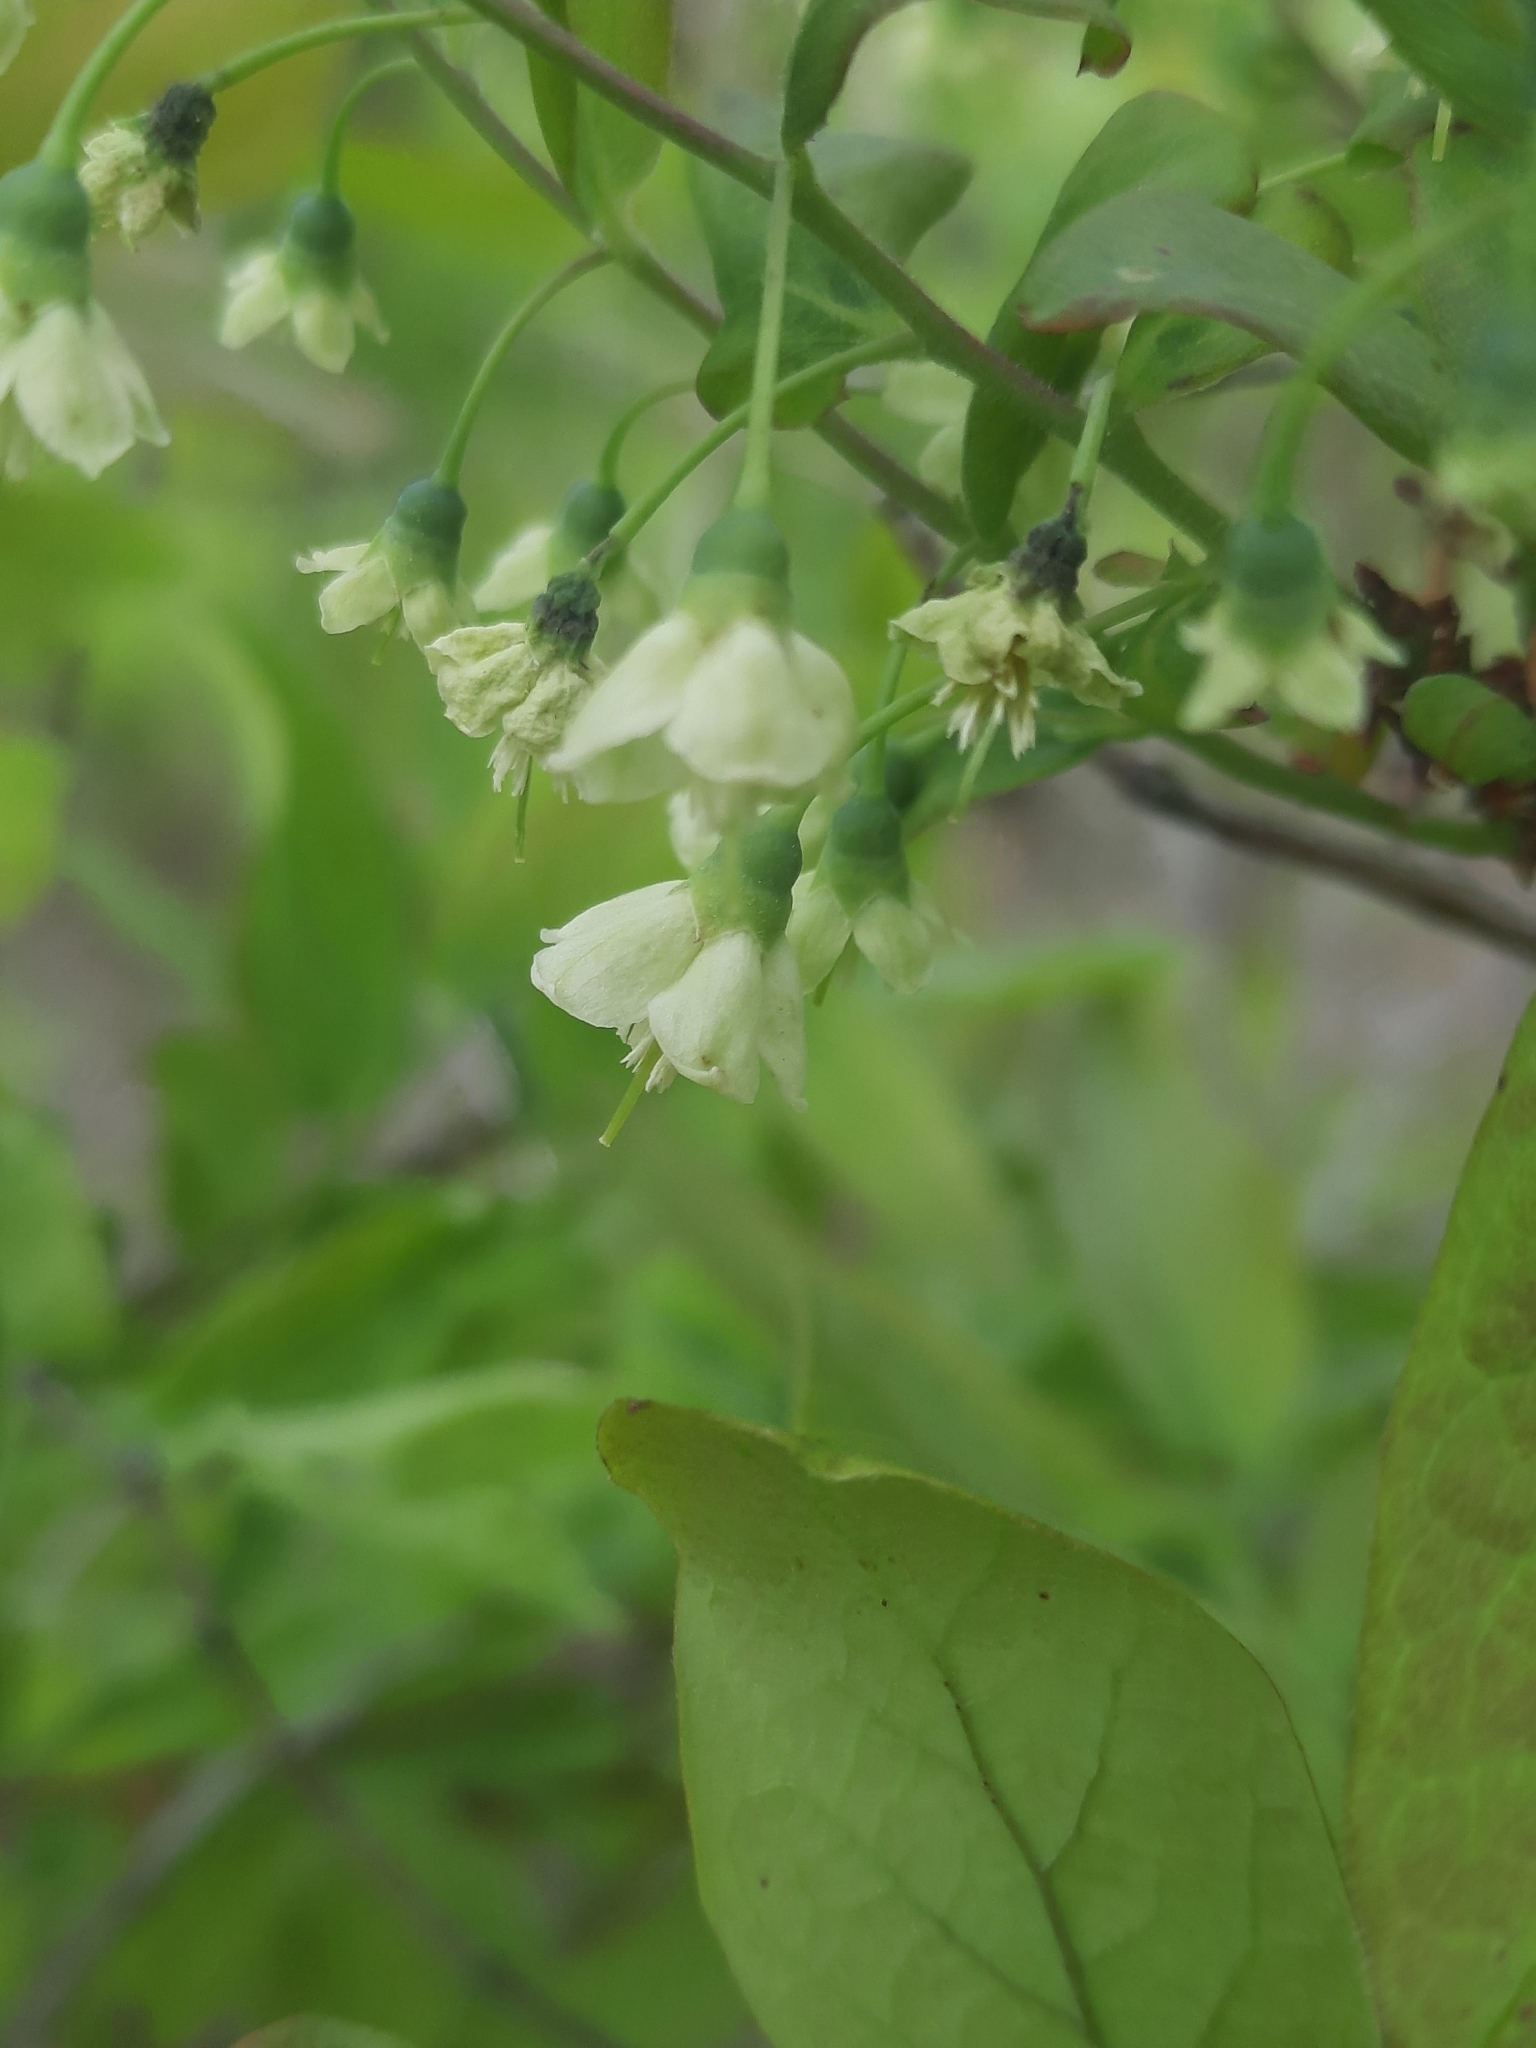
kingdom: Plantae
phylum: Tracheophyta
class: Magnoliopsida
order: Ericales
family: Ericaceae
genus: Vaccinium
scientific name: Vaccinium stamineum
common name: Deerberry
